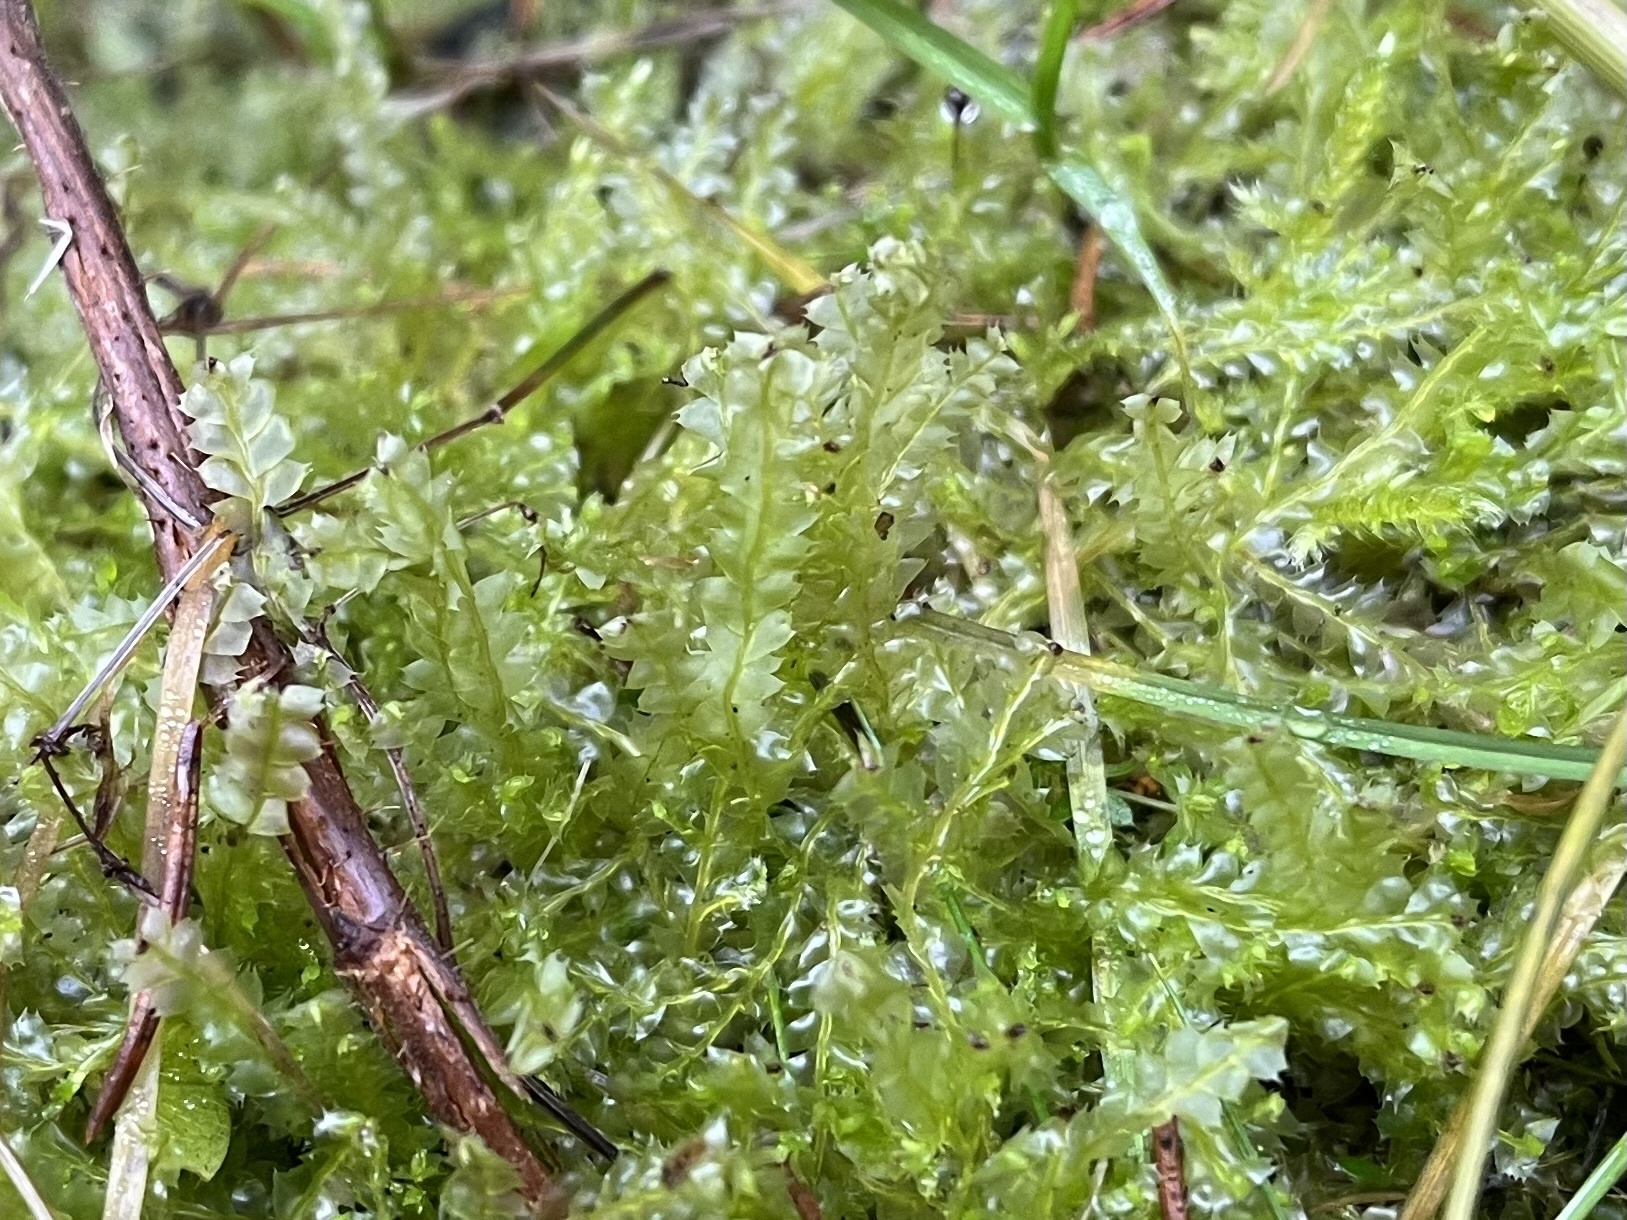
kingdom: Plantae
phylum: Marchantiophyta
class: Jungermanniopsida
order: Jungermanniales
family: Lophocoleaceae
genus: Lophocolea
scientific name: Lophocolea bidentata
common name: Bifid crestwort
